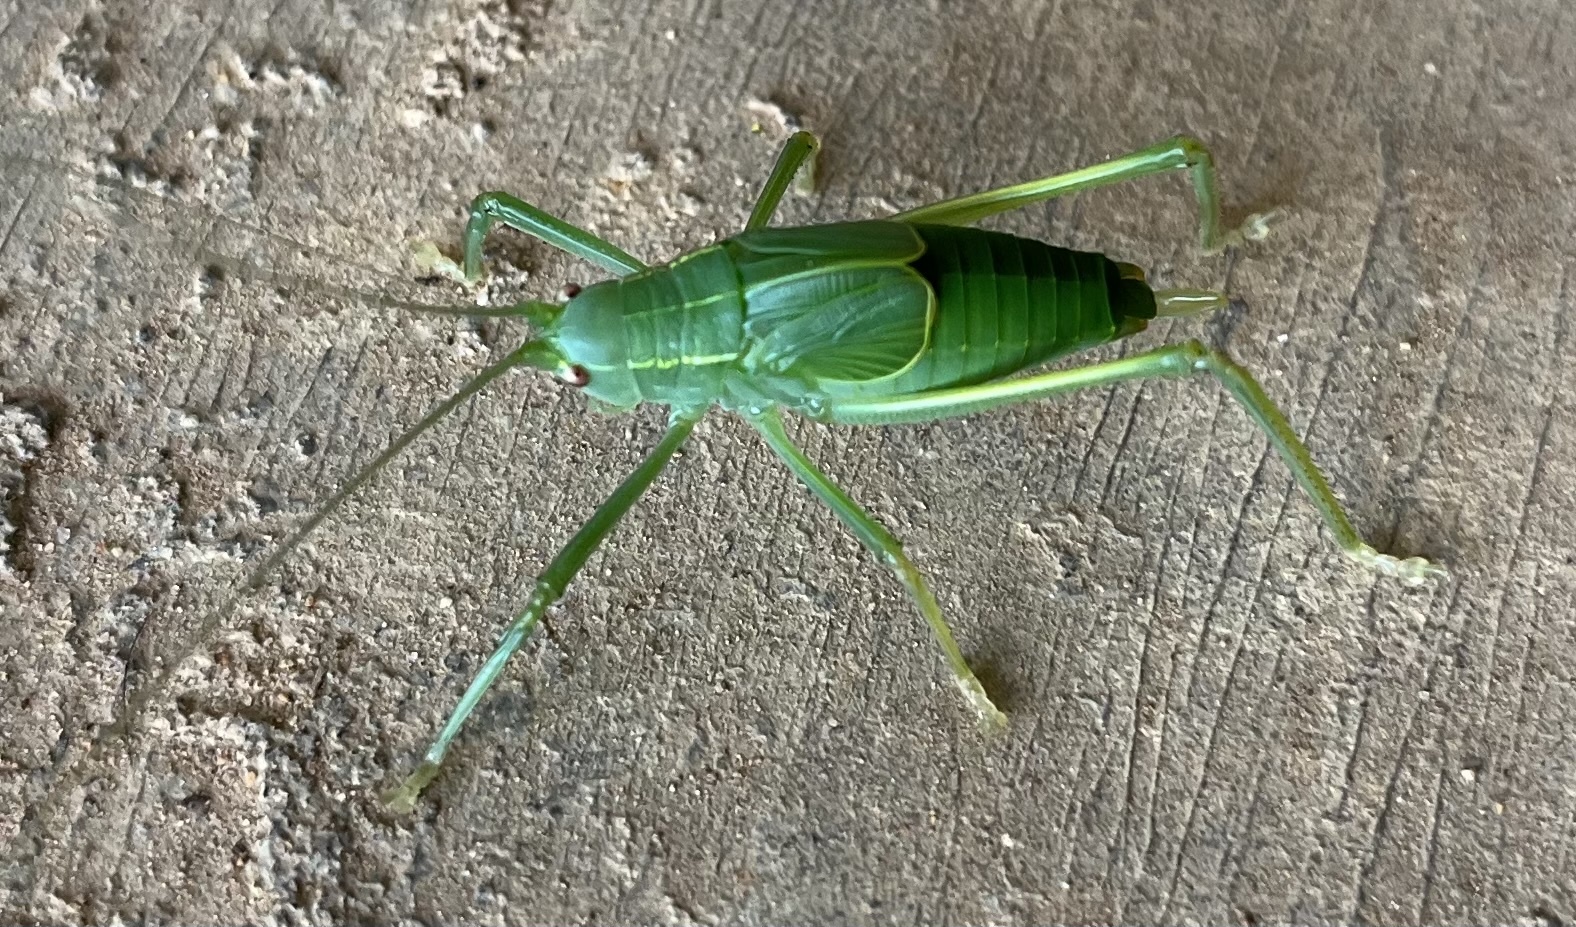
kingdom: Animalia
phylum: Arthropoda
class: Insecta
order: Orthoptera
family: Tettigoniidae
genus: Pterophylla
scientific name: Pterophylla camellifolia
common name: Common true katydid
